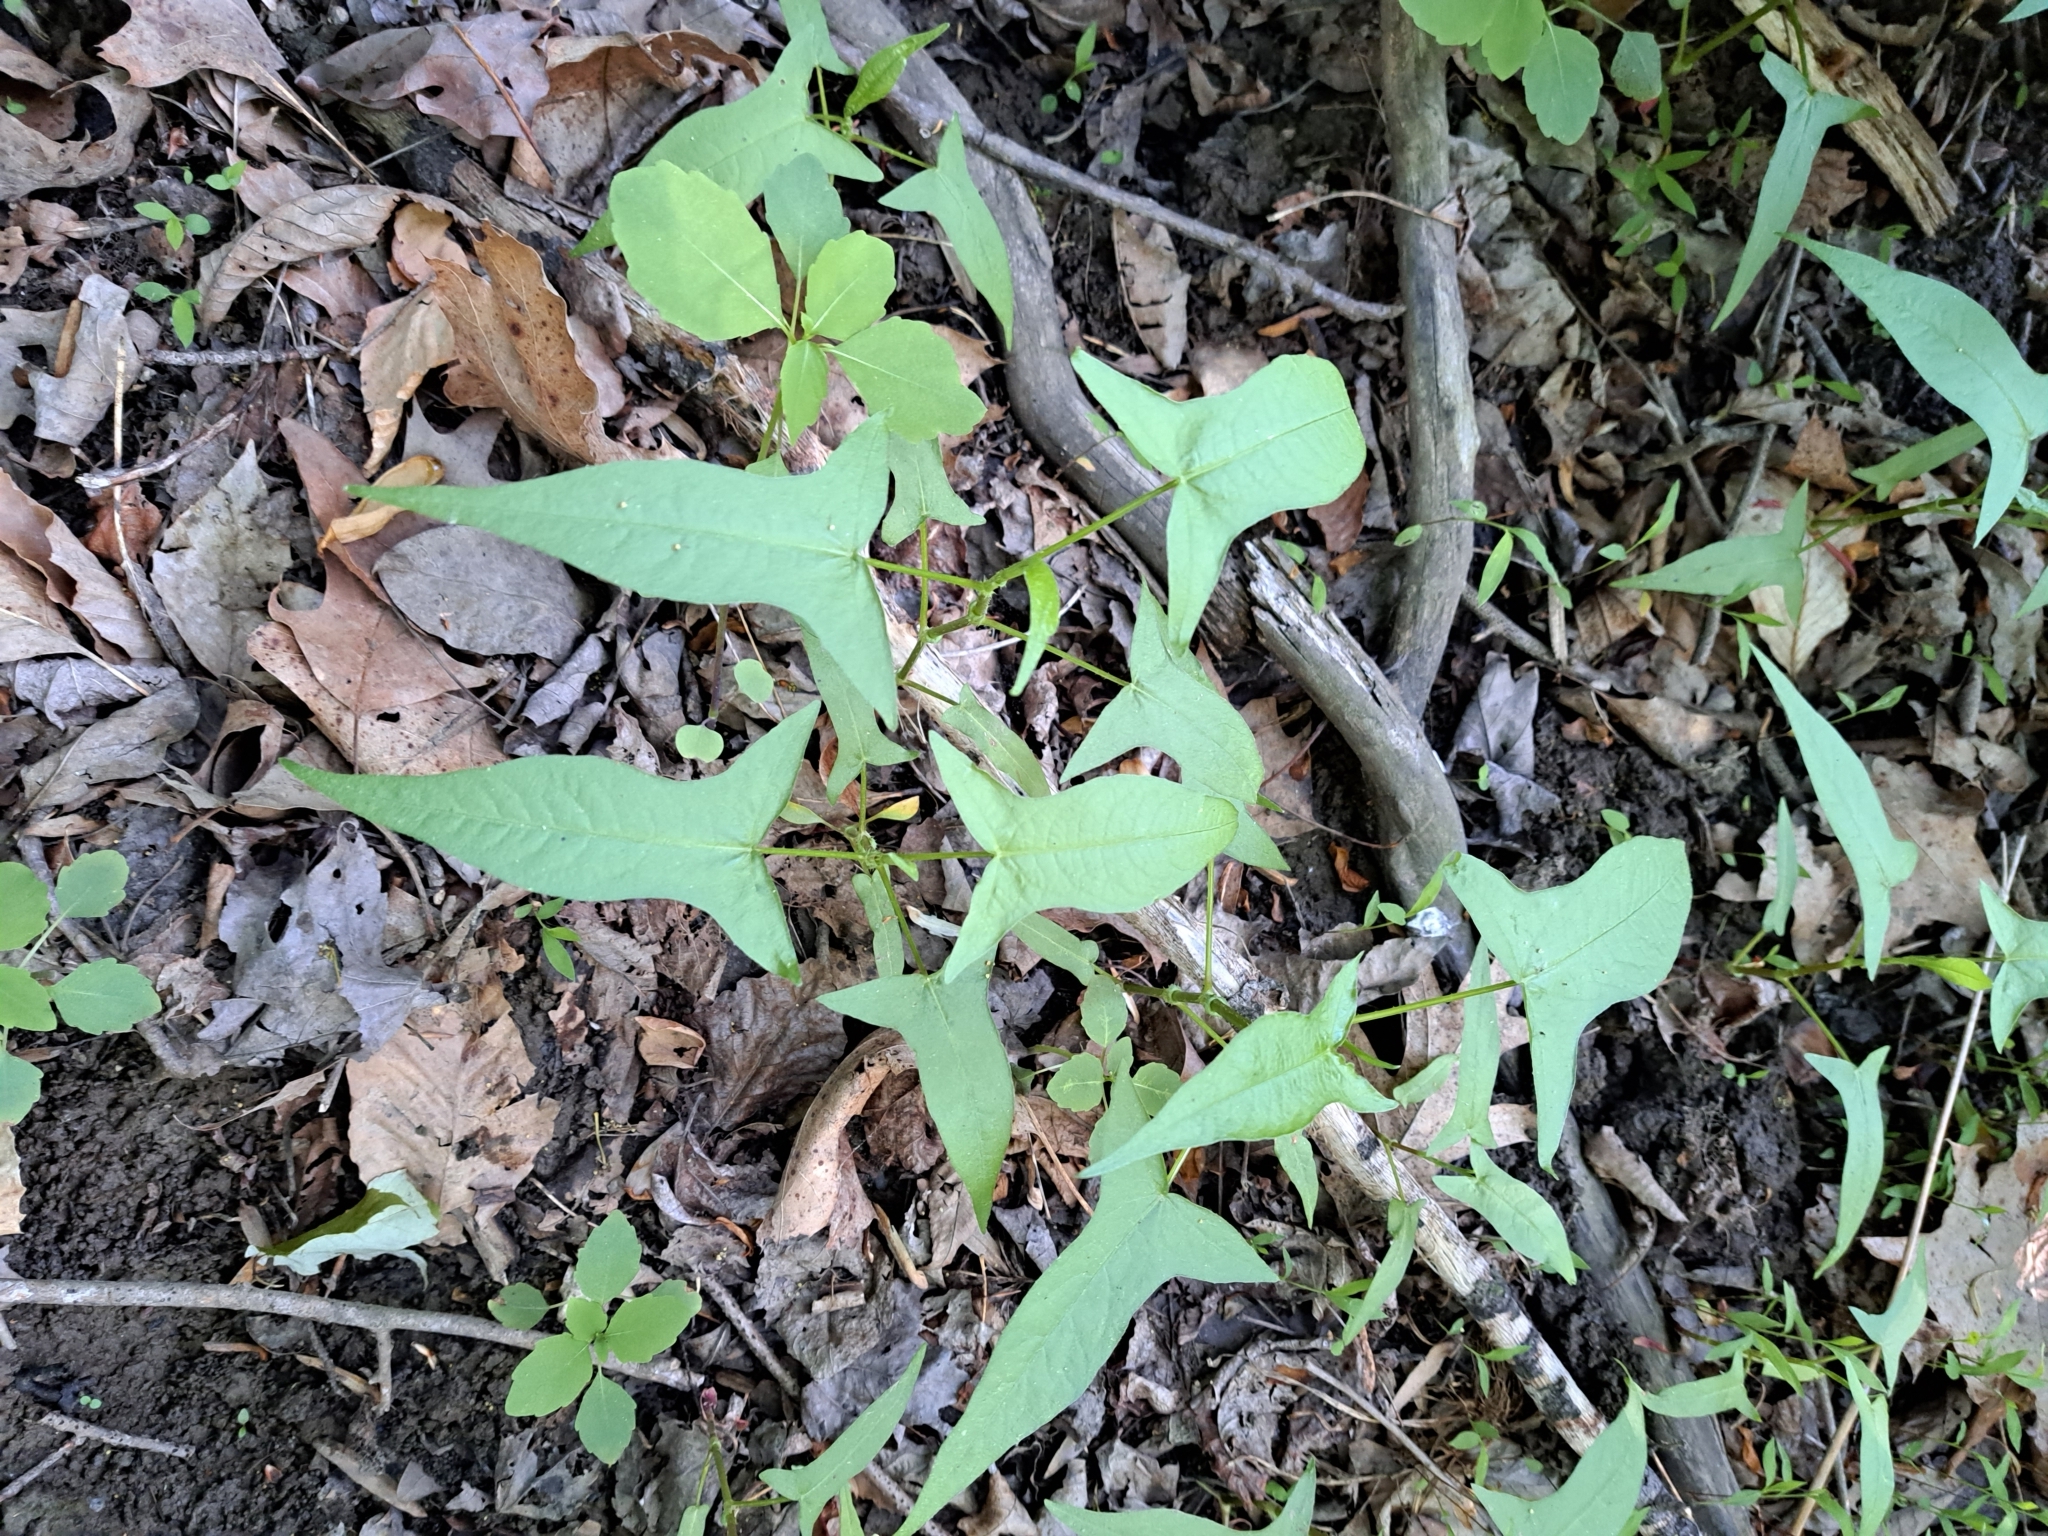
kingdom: Plantae
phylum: Tracheophyta
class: Magnoliopsida
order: Caryophyllales
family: Polygonaceae
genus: Persicaria
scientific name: Persicaria arifolia
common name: Halberd-leaved tear-thumb
